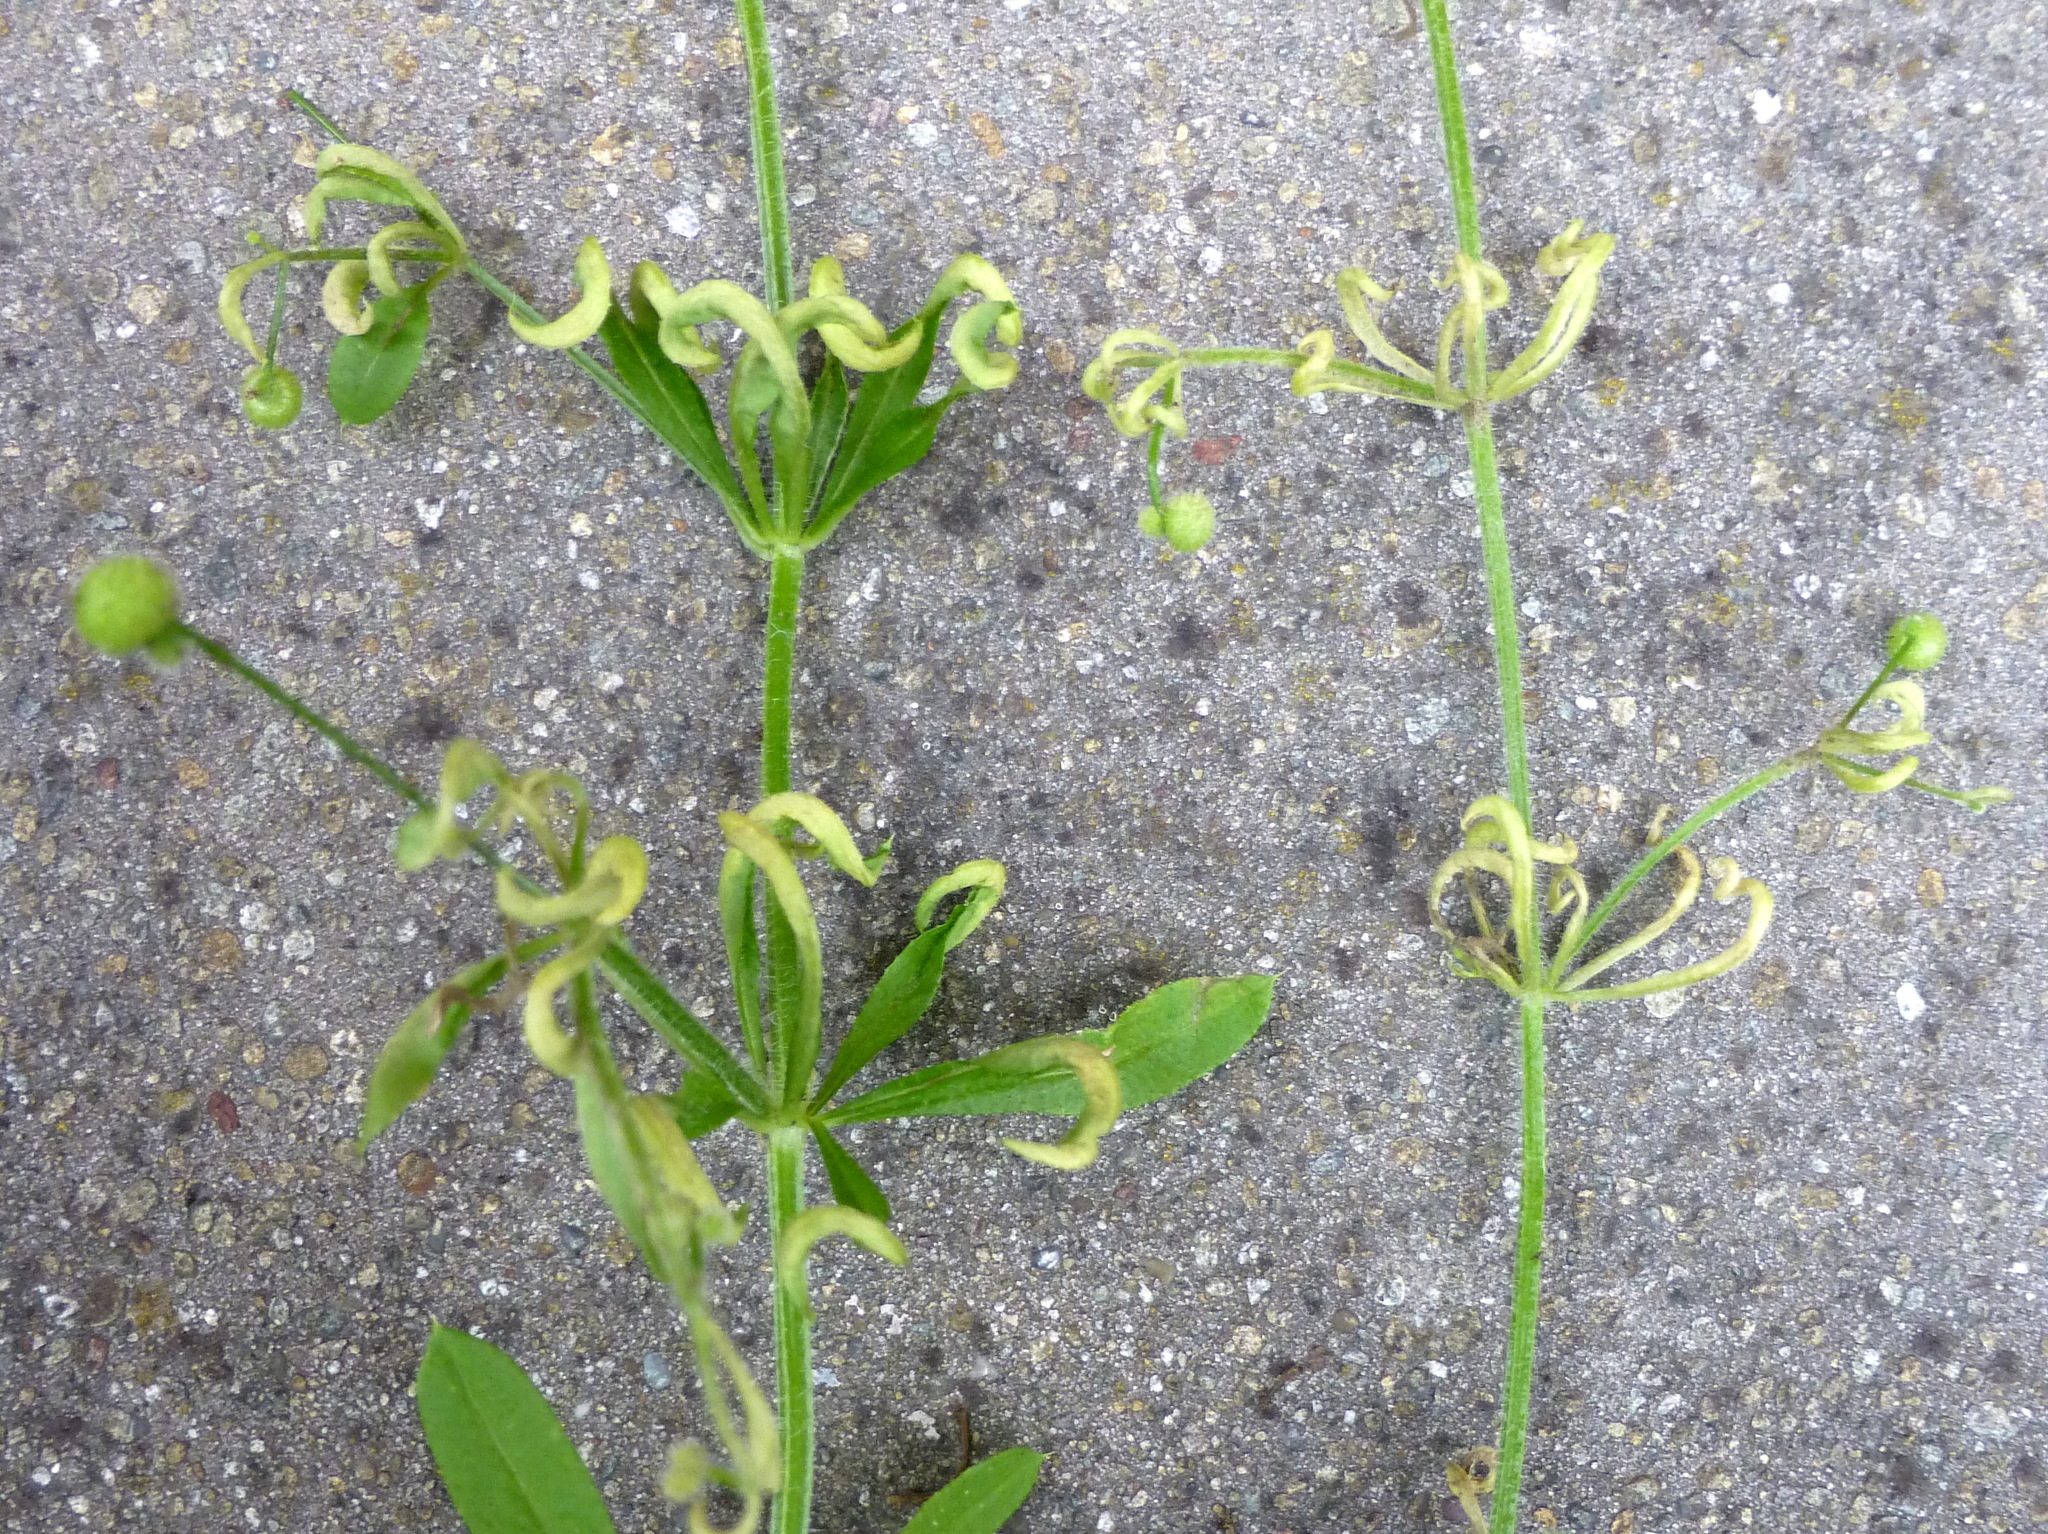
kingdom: Animalia
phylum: Arthropoda
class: Arachnida
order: Trombidiformes
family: Eriophyidae
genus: Cecidophyes
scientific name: Cecidophyes rouhollahi
